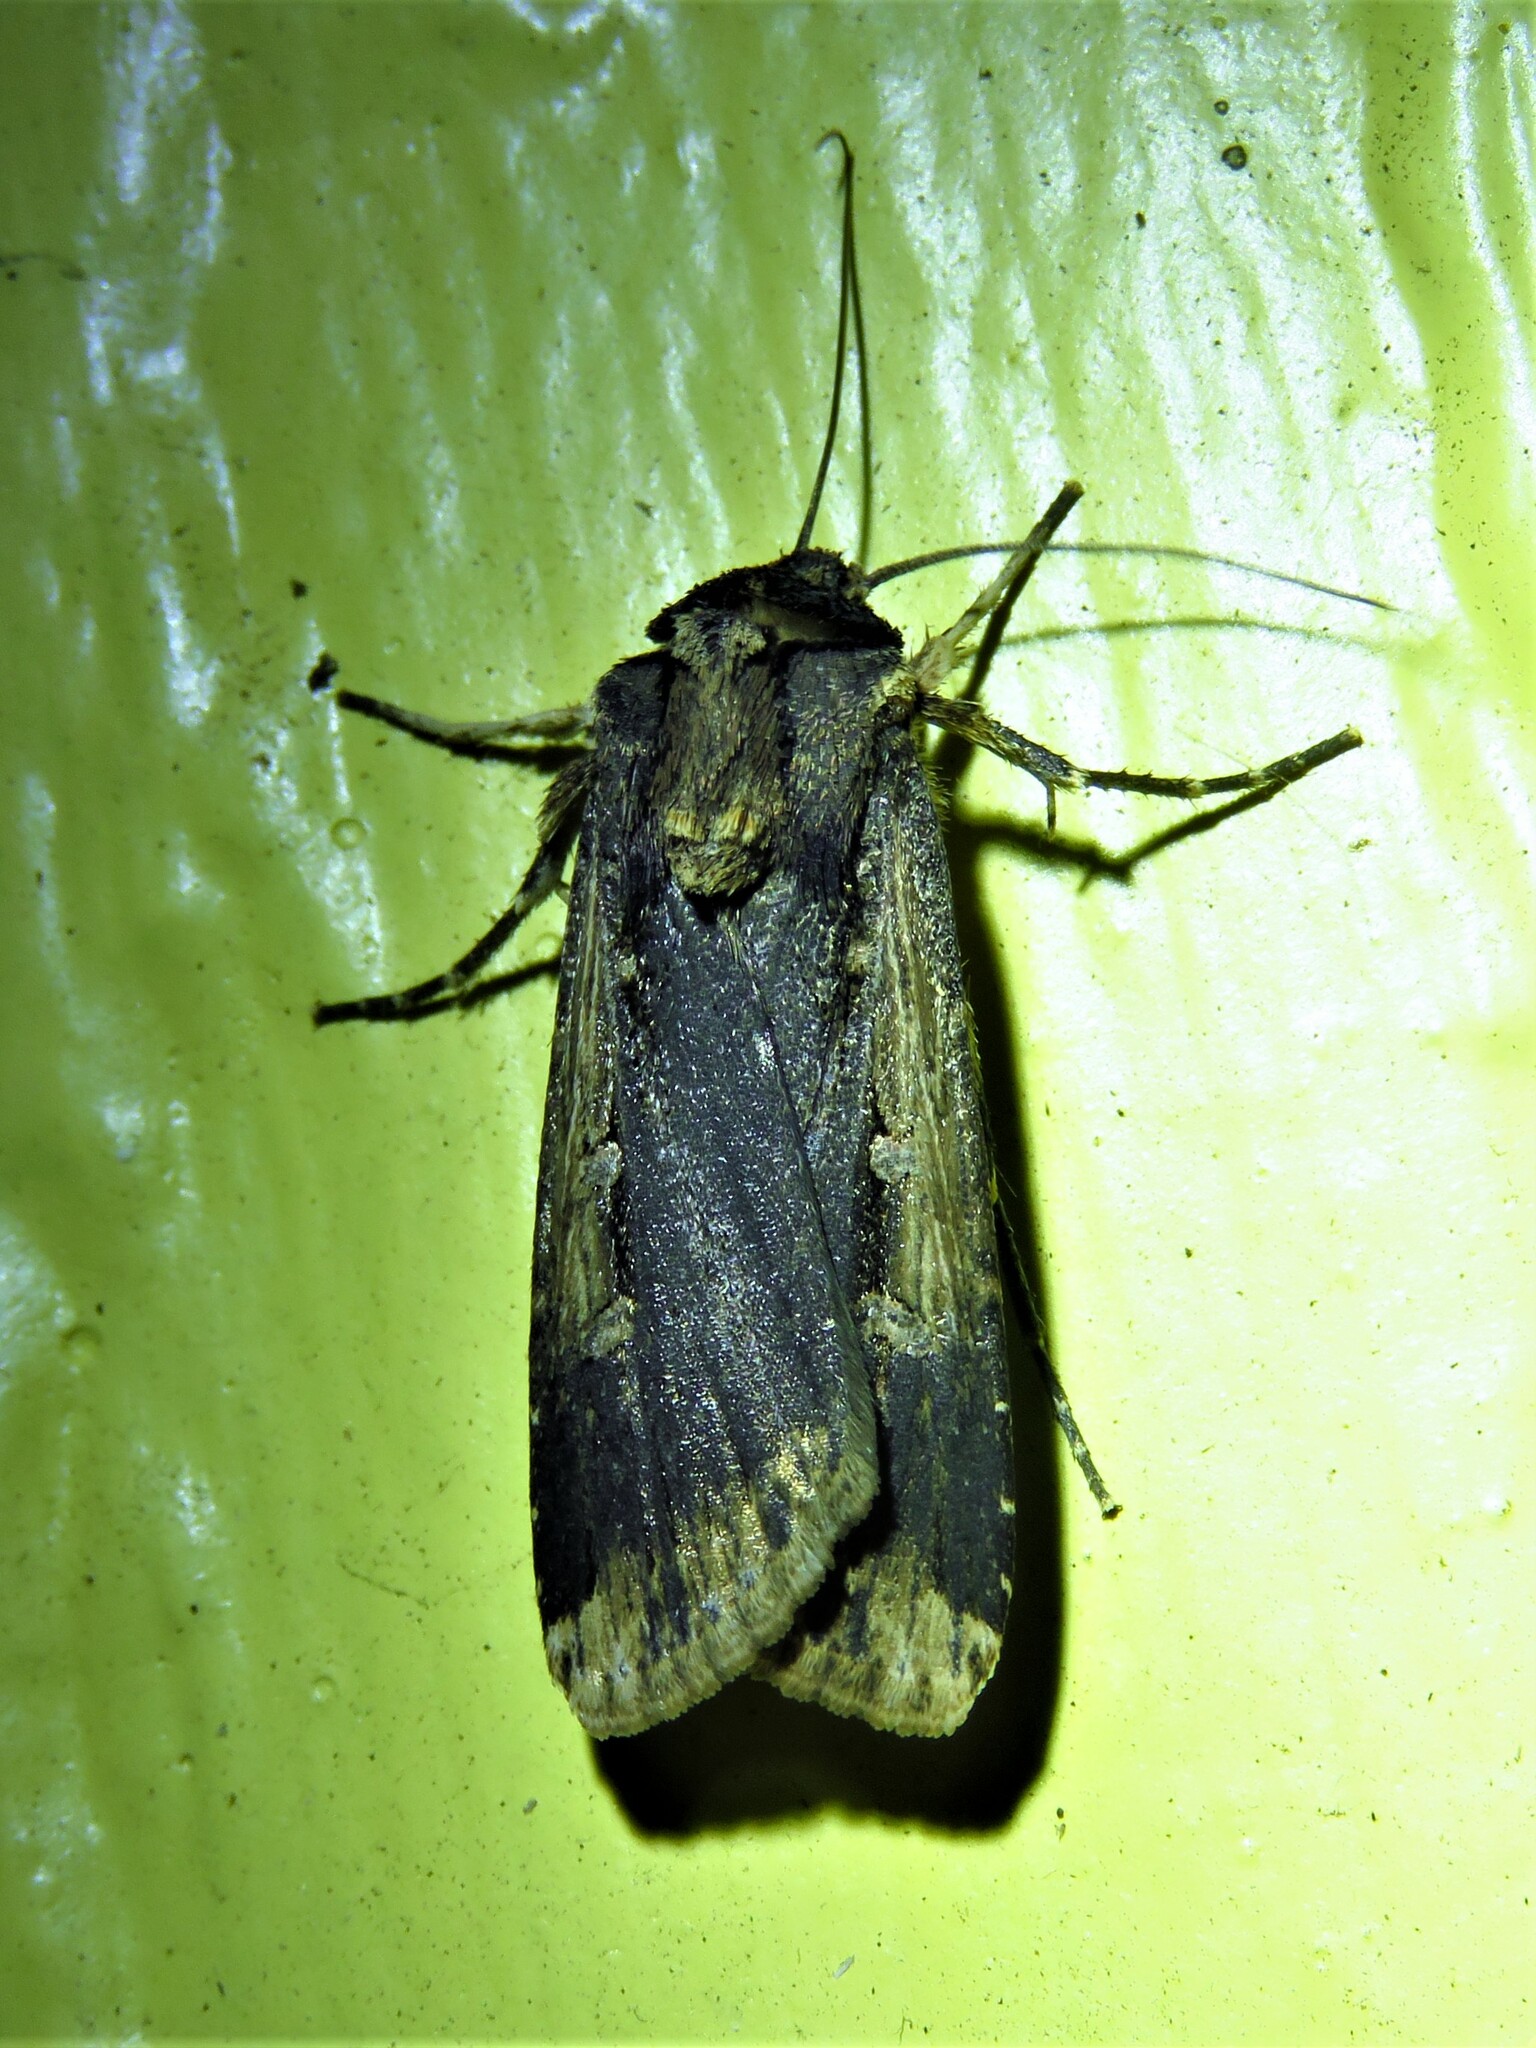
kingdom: Animalia
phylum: Arthropoda
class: Insecta
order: Lepidoptera
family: Noctuidae
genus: Feltia
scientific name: Feltia subterranea
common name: Granulate cutworm
